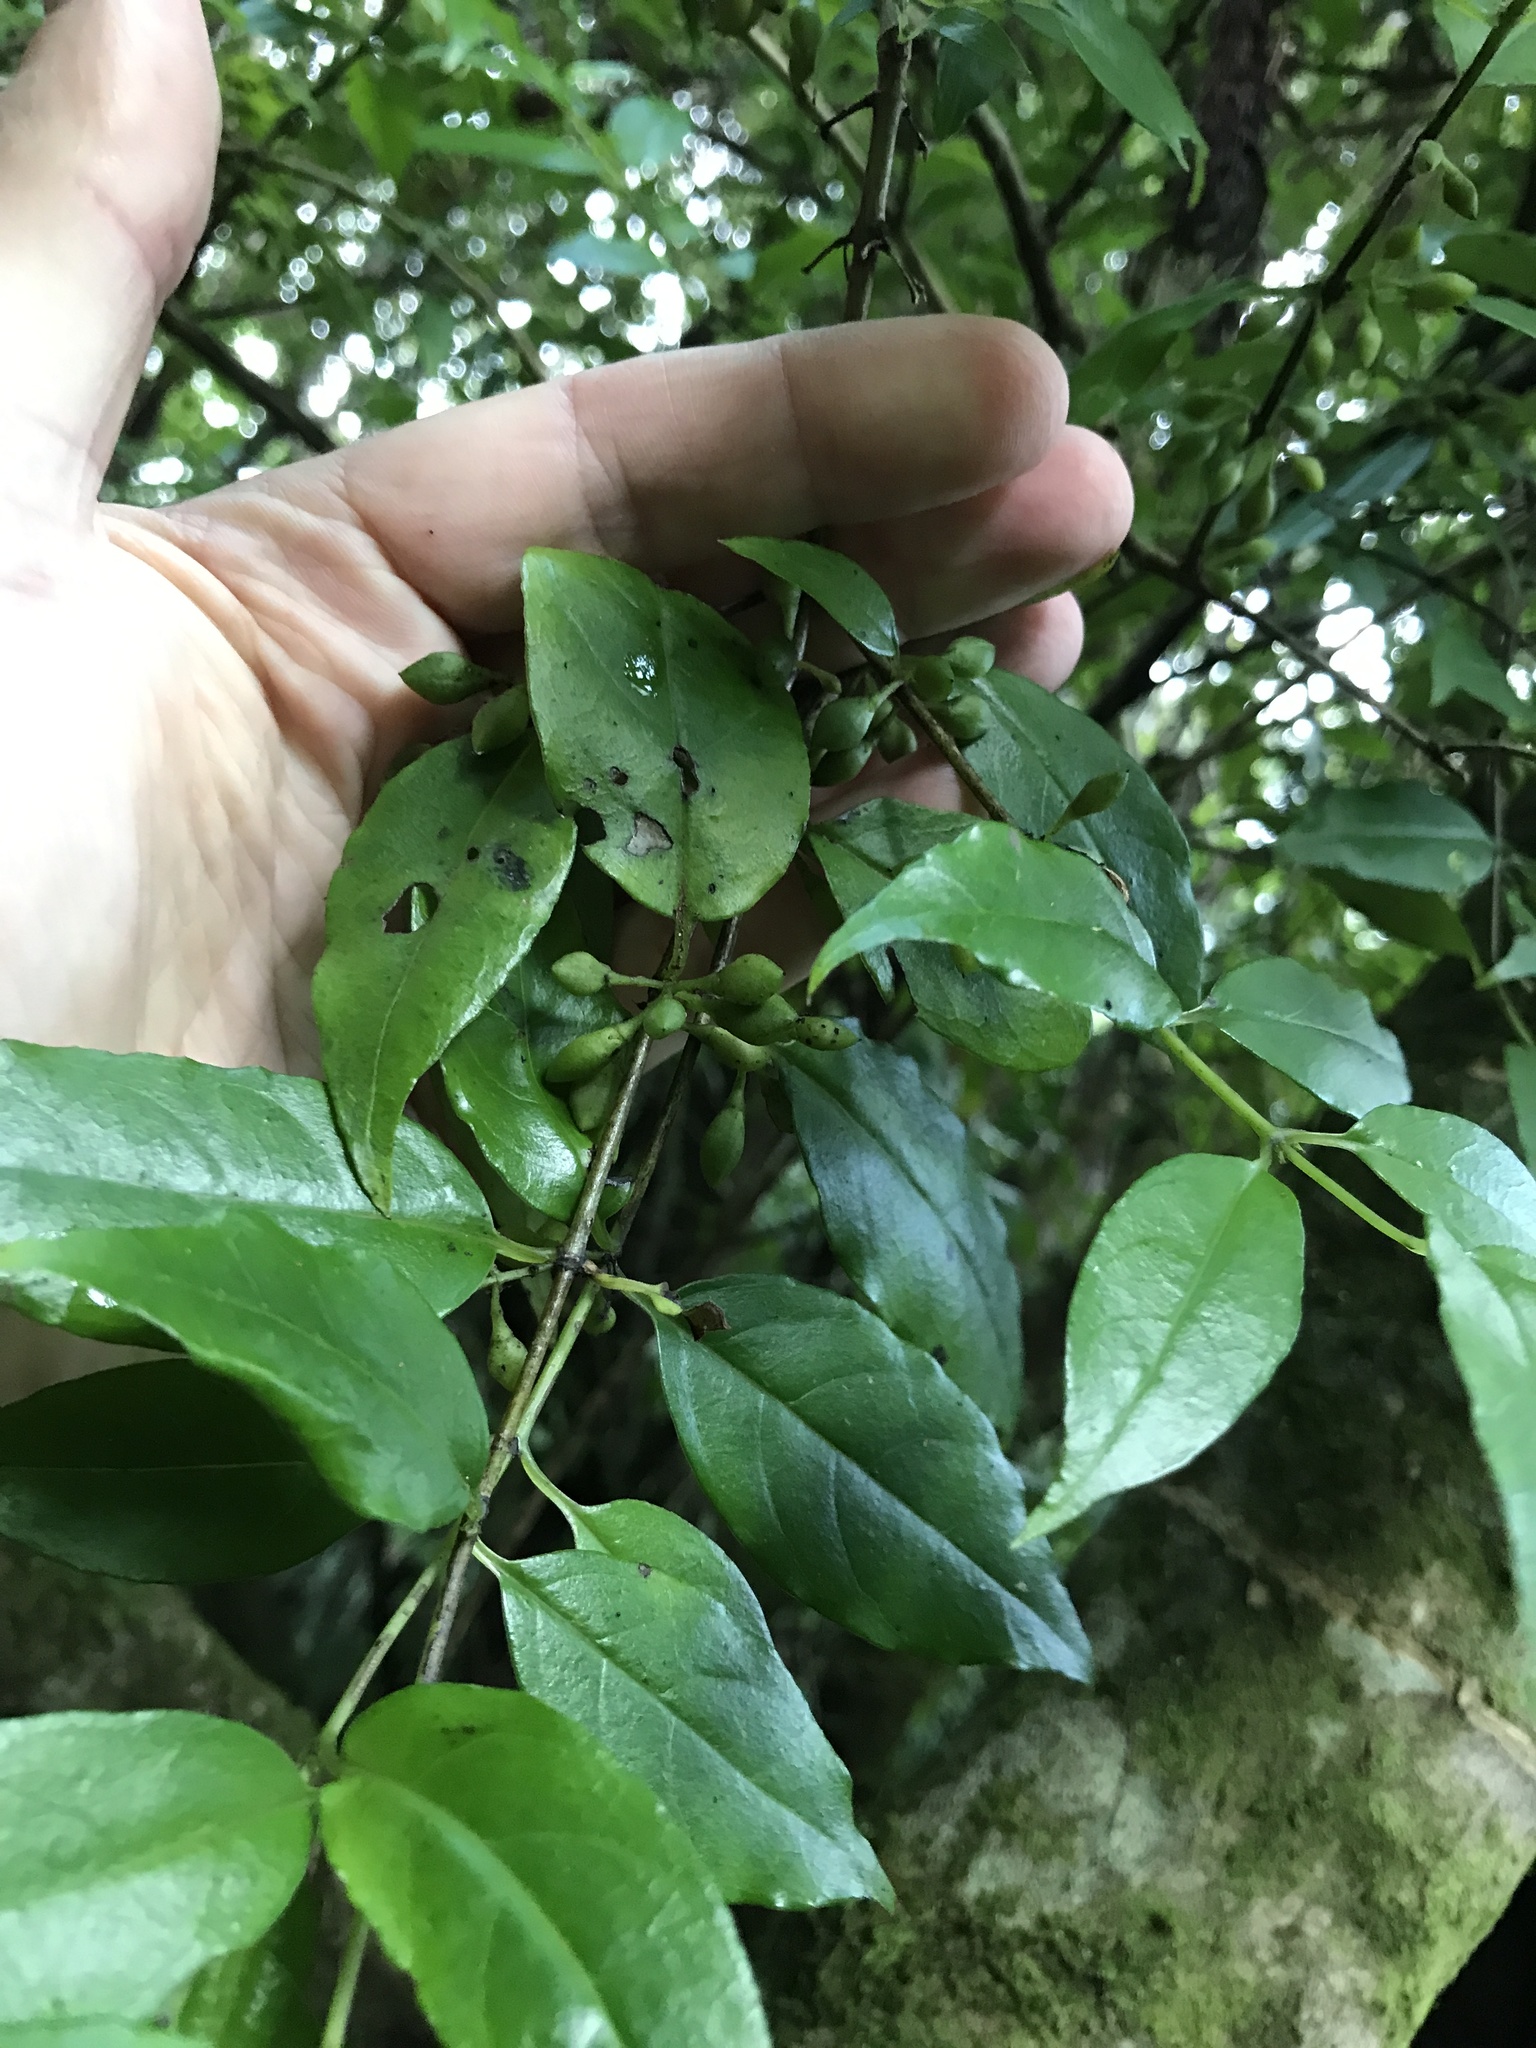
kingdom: Plantae
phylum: Tracheophyta
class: Magnoliopsida
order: Gentianales
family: Loganiaceae
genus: Geniostoma
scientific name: Geniostoma ligustrifolium
